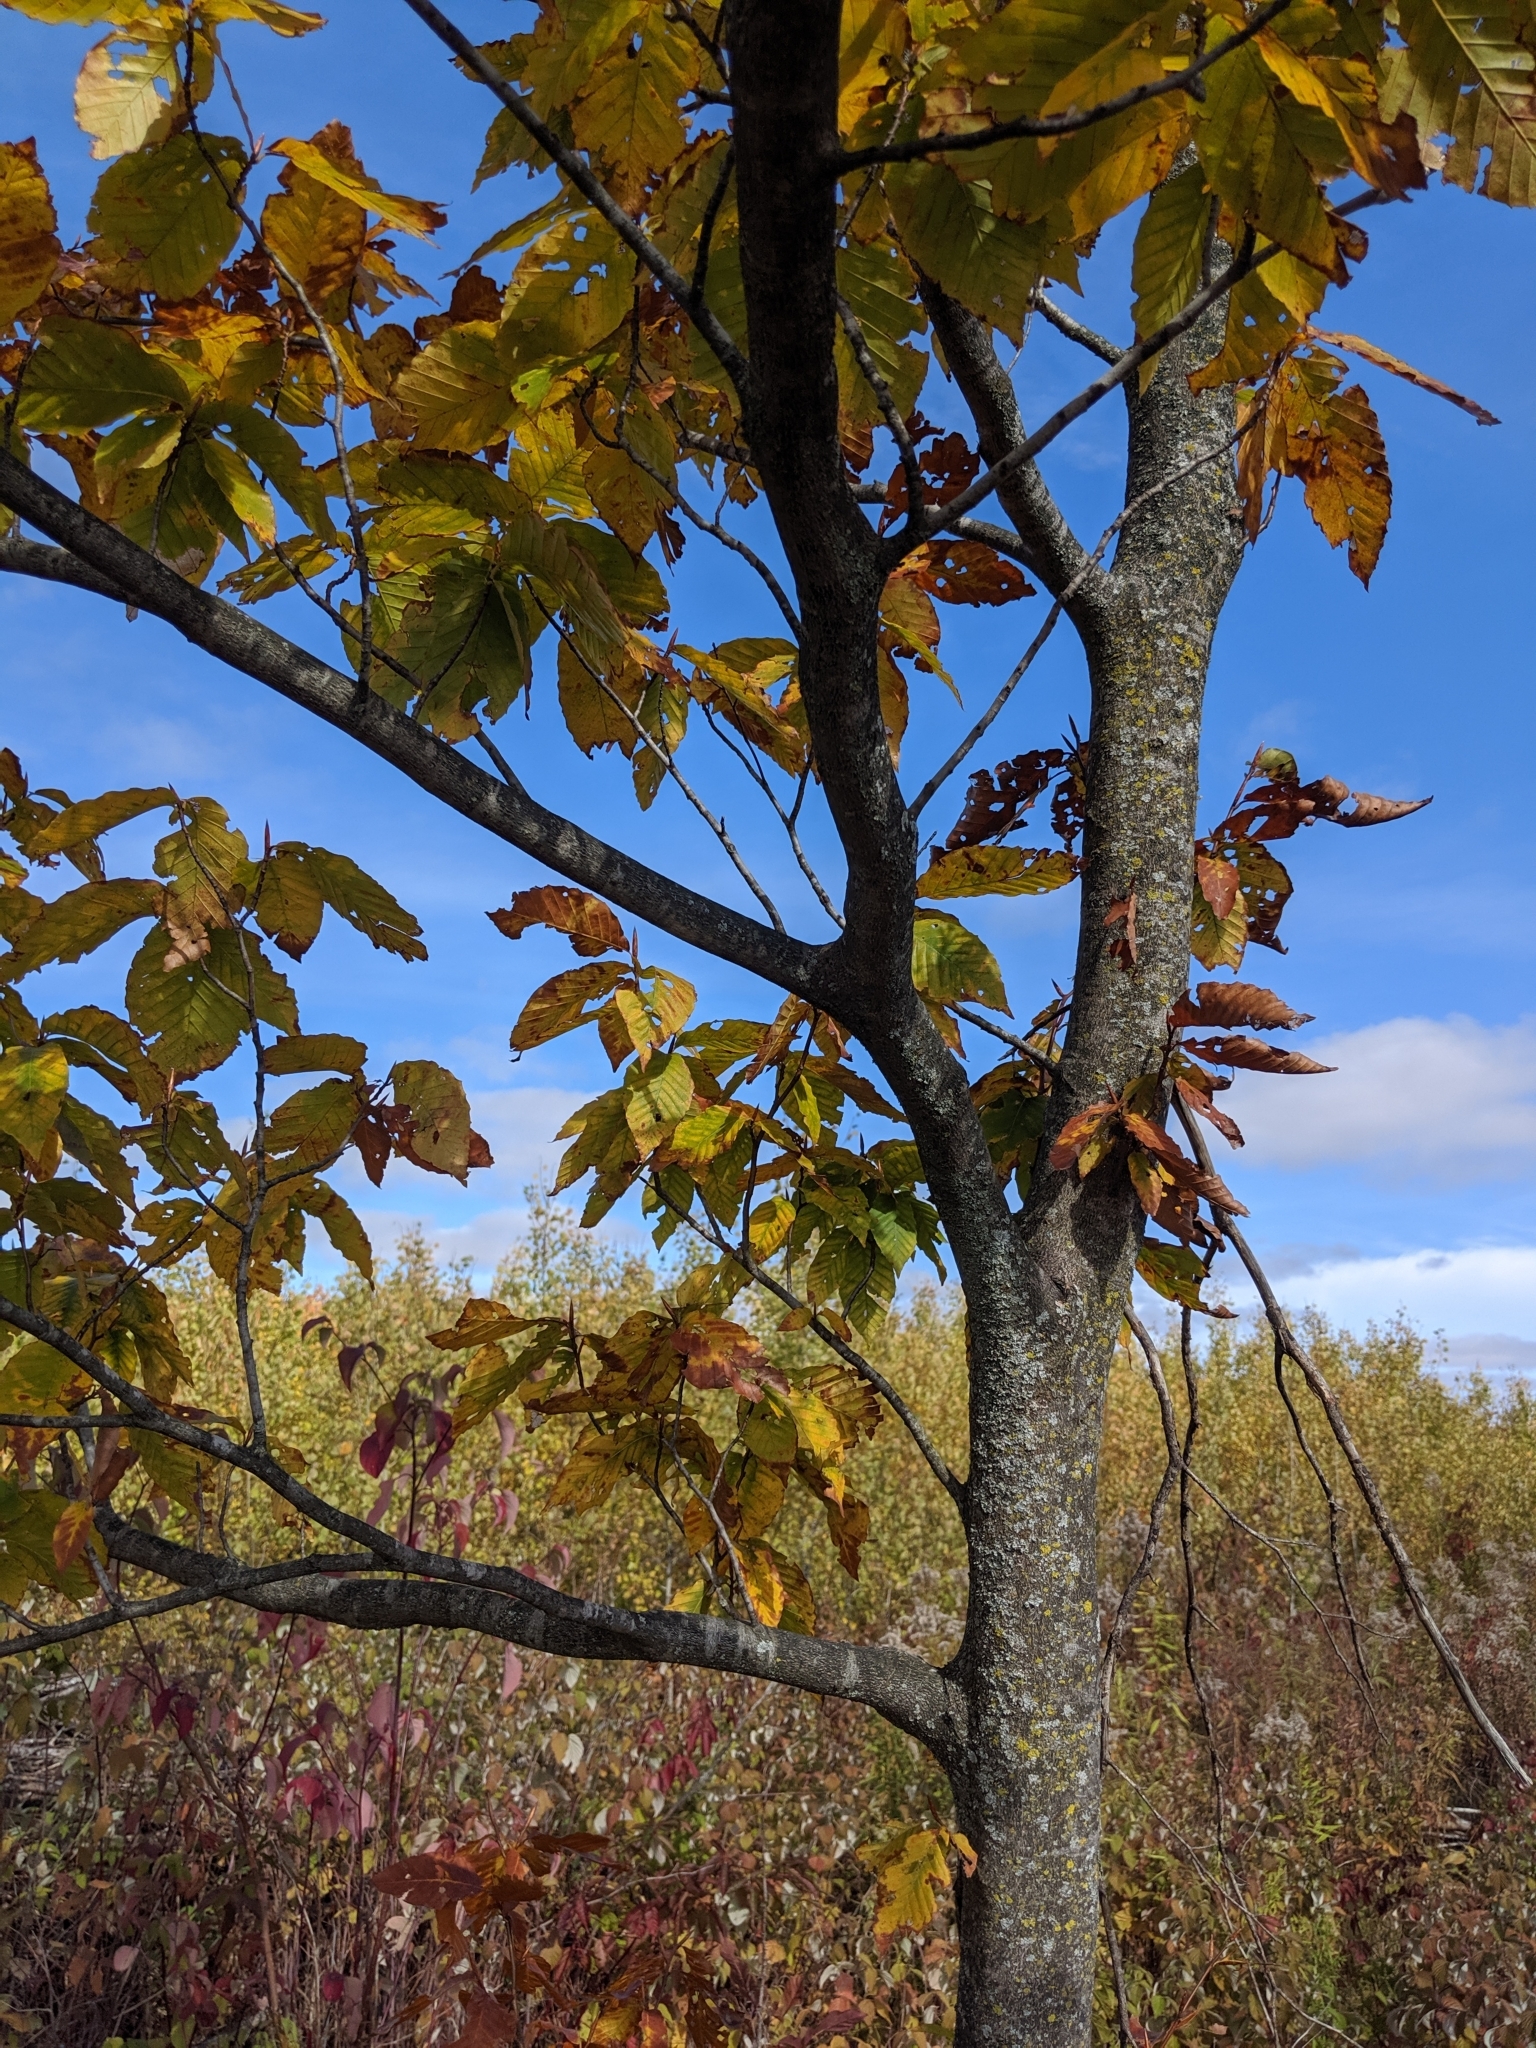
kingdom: Plantae
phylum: Tracheophyta
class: Magnoliopsida
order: Fagales
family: Fagaceae
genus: Fagus
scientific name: Fagus grandifolia
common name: American beech
